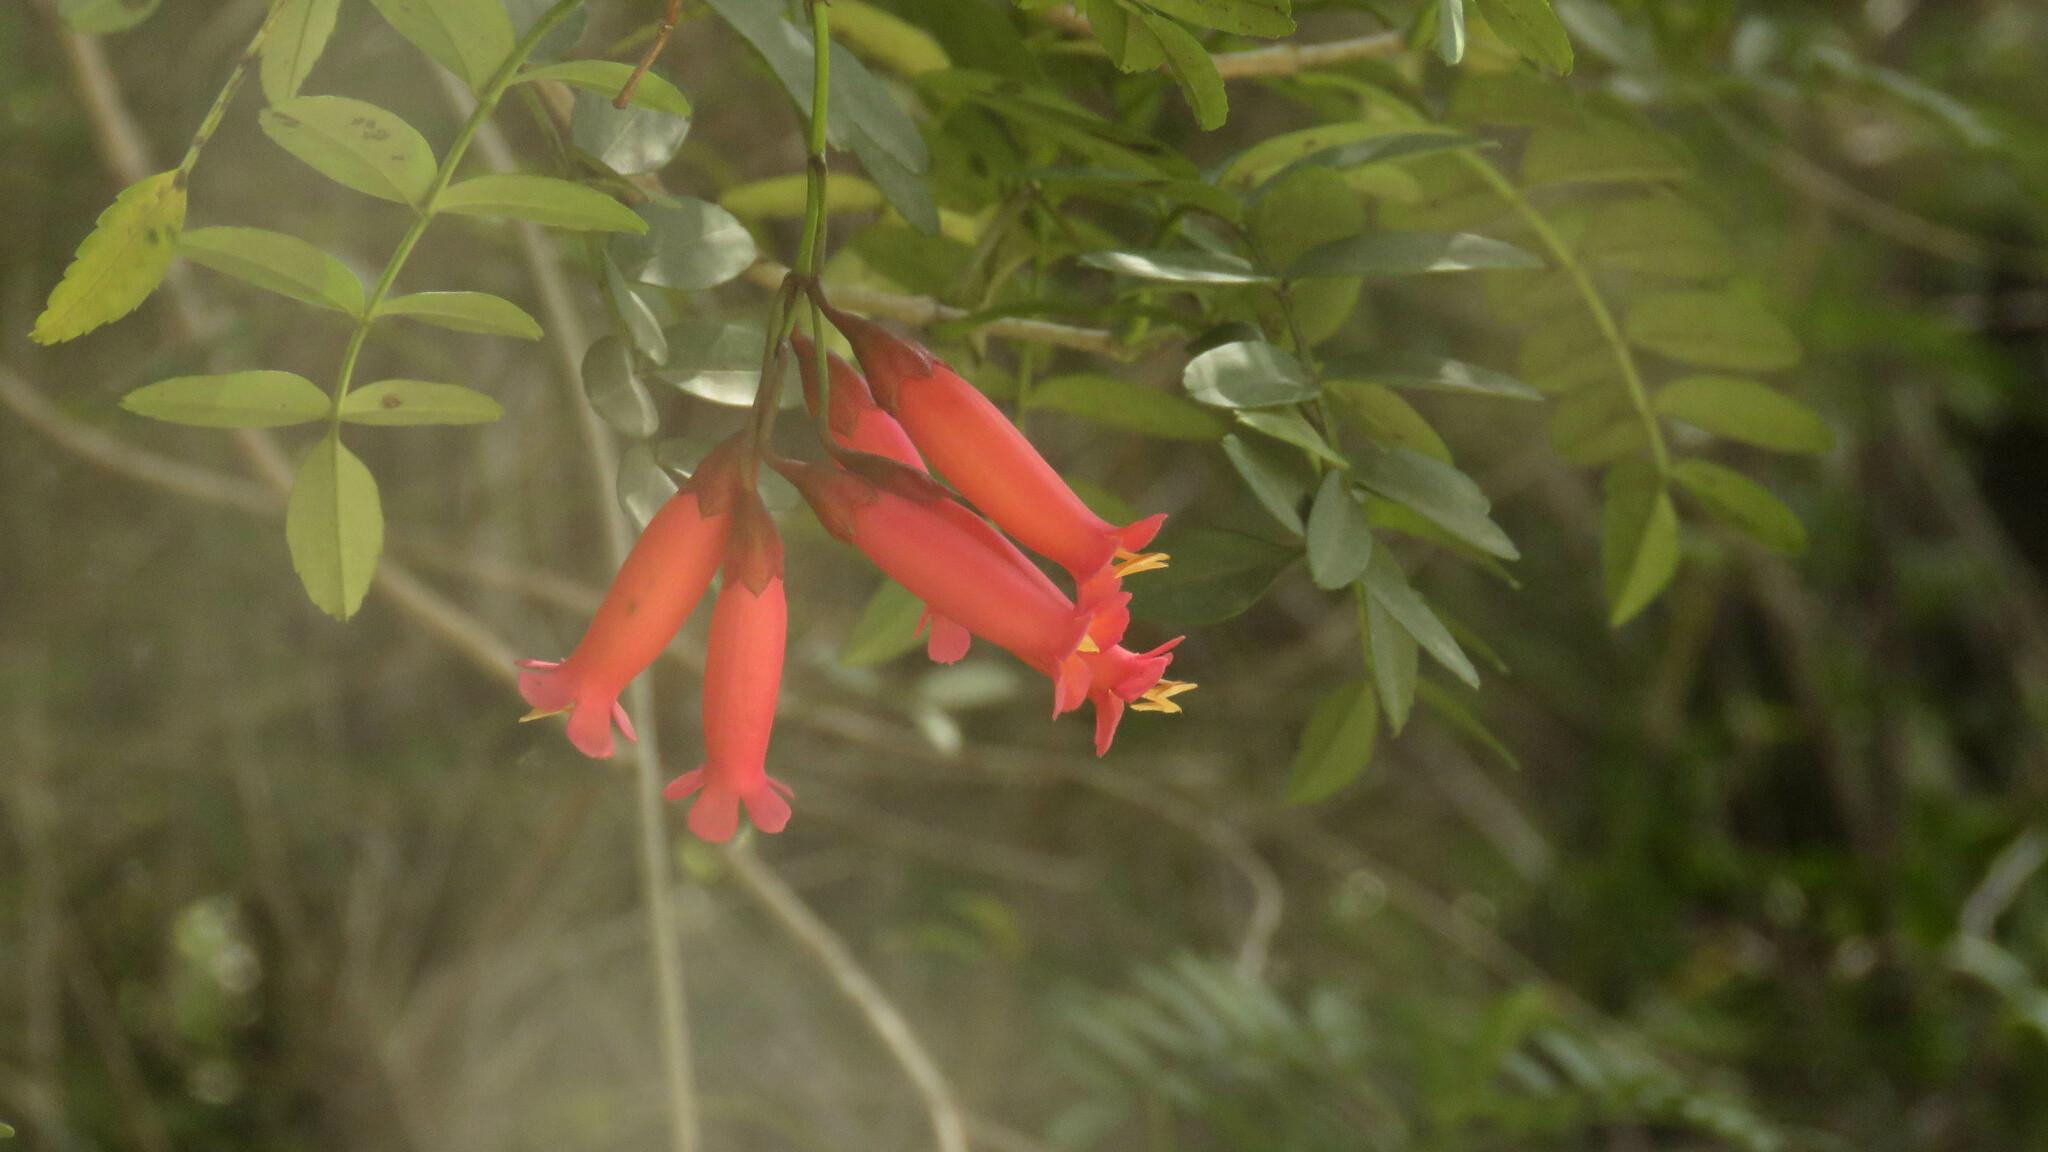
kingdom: Plantae
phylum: Tracheophyta
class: Magnoliopsida
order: Lamiales
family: Bignoniaceae
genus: Campsidium
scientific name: Campsidium valdivianum
